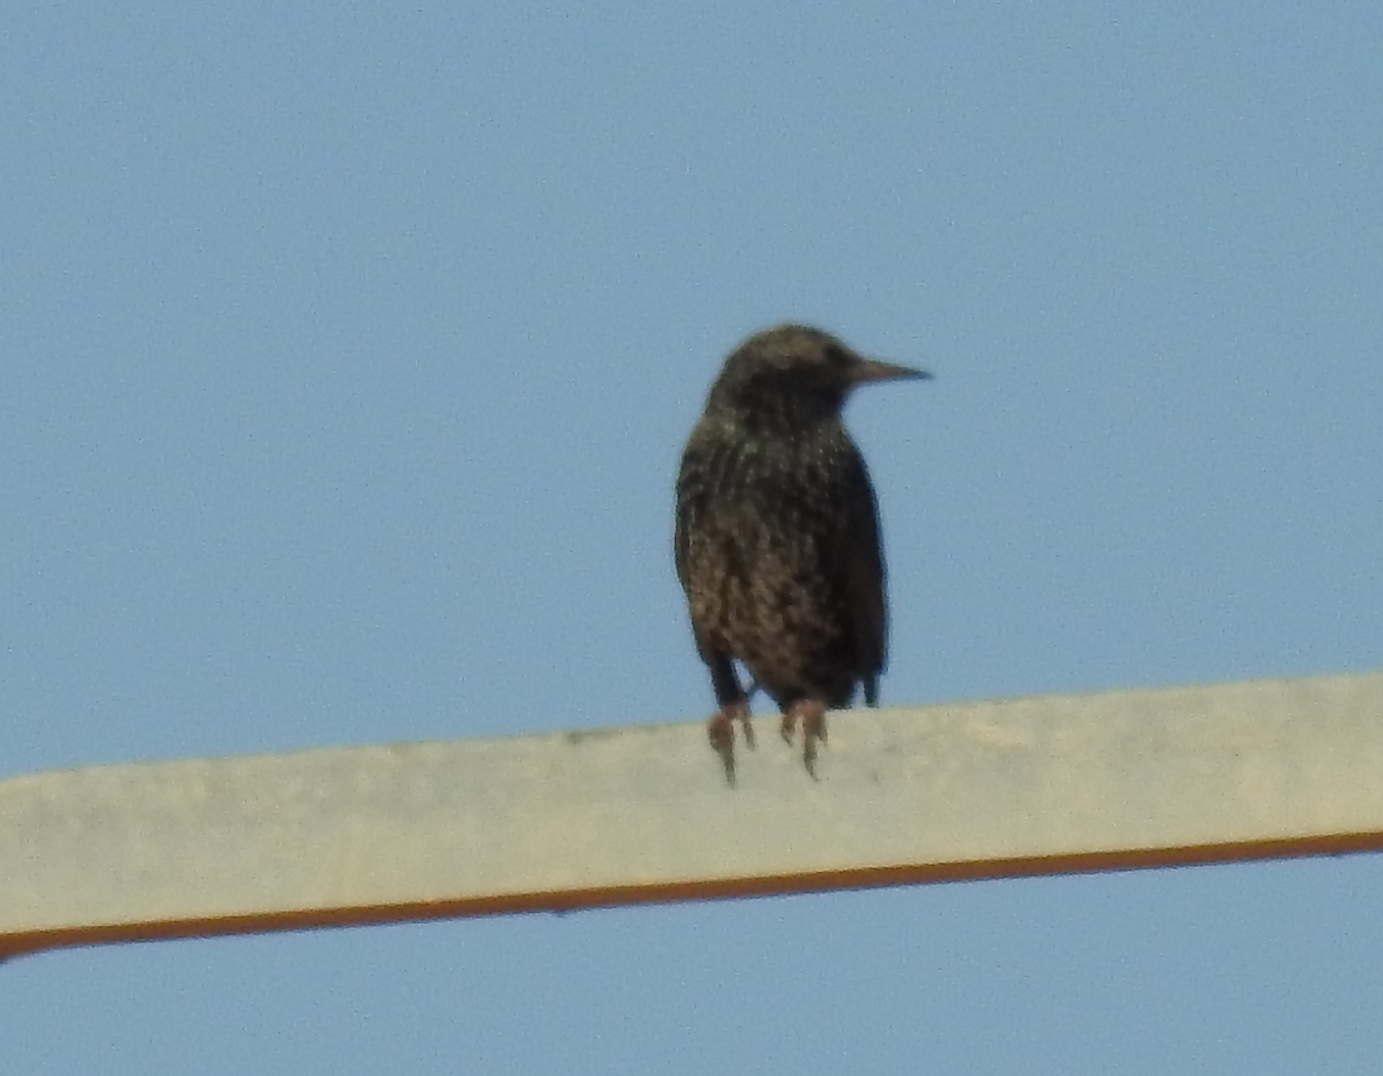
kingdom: Animalia
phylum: Chordata
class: Aves
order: Passeriformes
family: Sturnidae
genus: Sturnus
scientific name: Sturnus vulgaris
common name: Common starling
